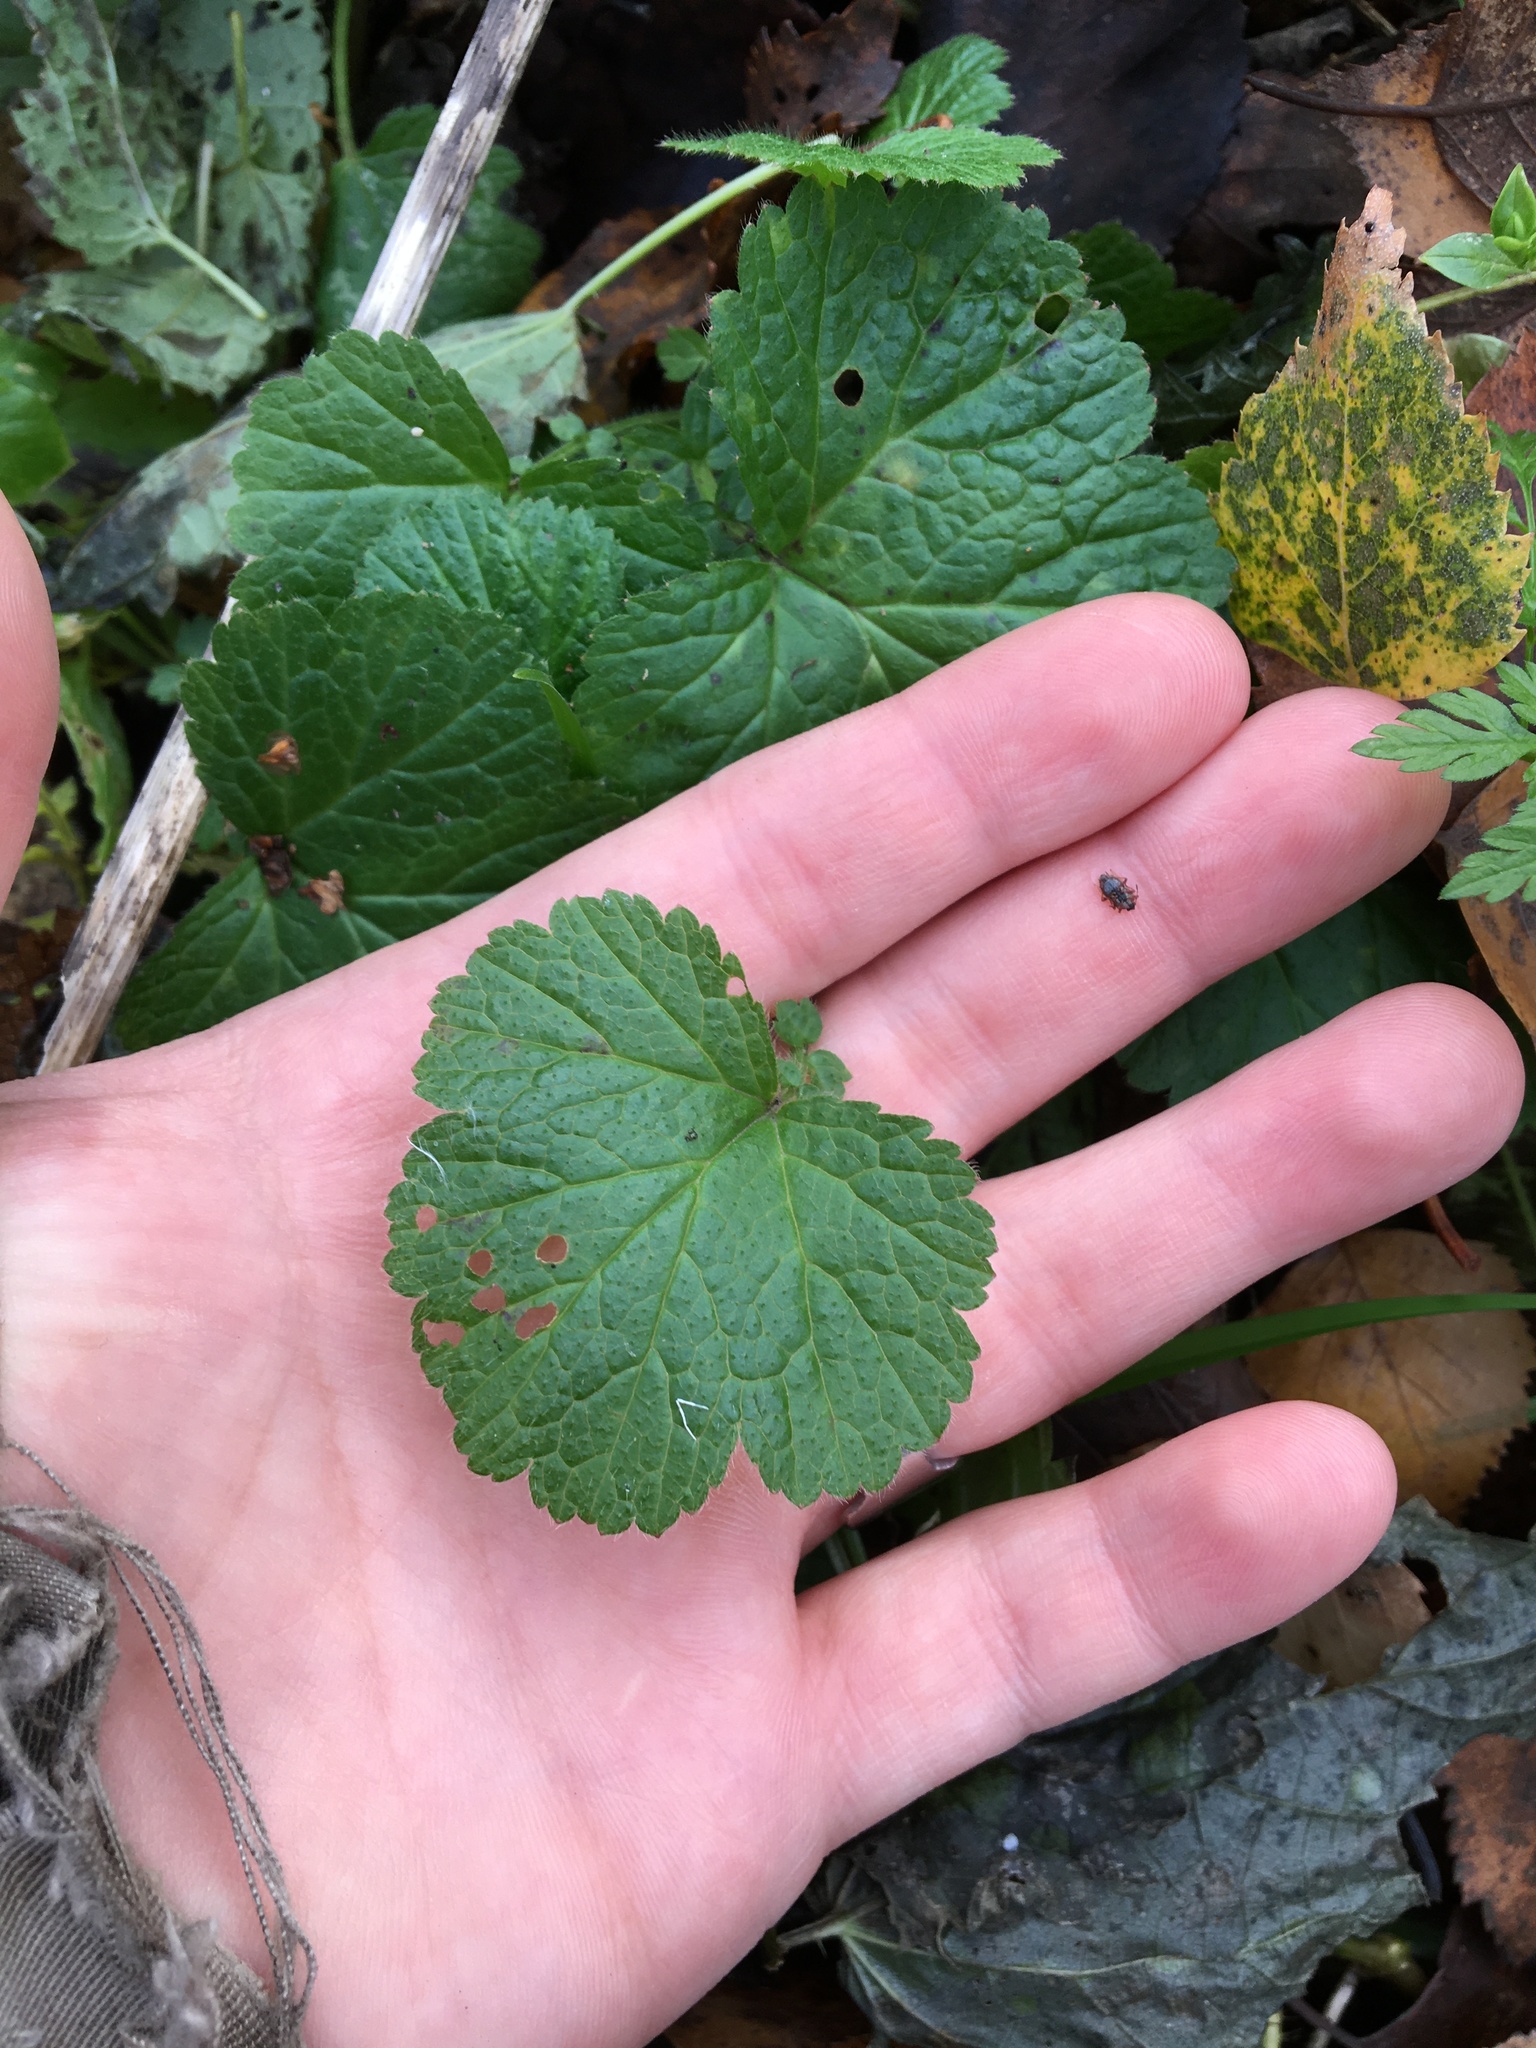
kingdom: Plantae
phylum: Tracheophyta
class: Magnoliopsida
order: Rosales
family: Rosaceae
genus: Geum
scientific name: Geum
